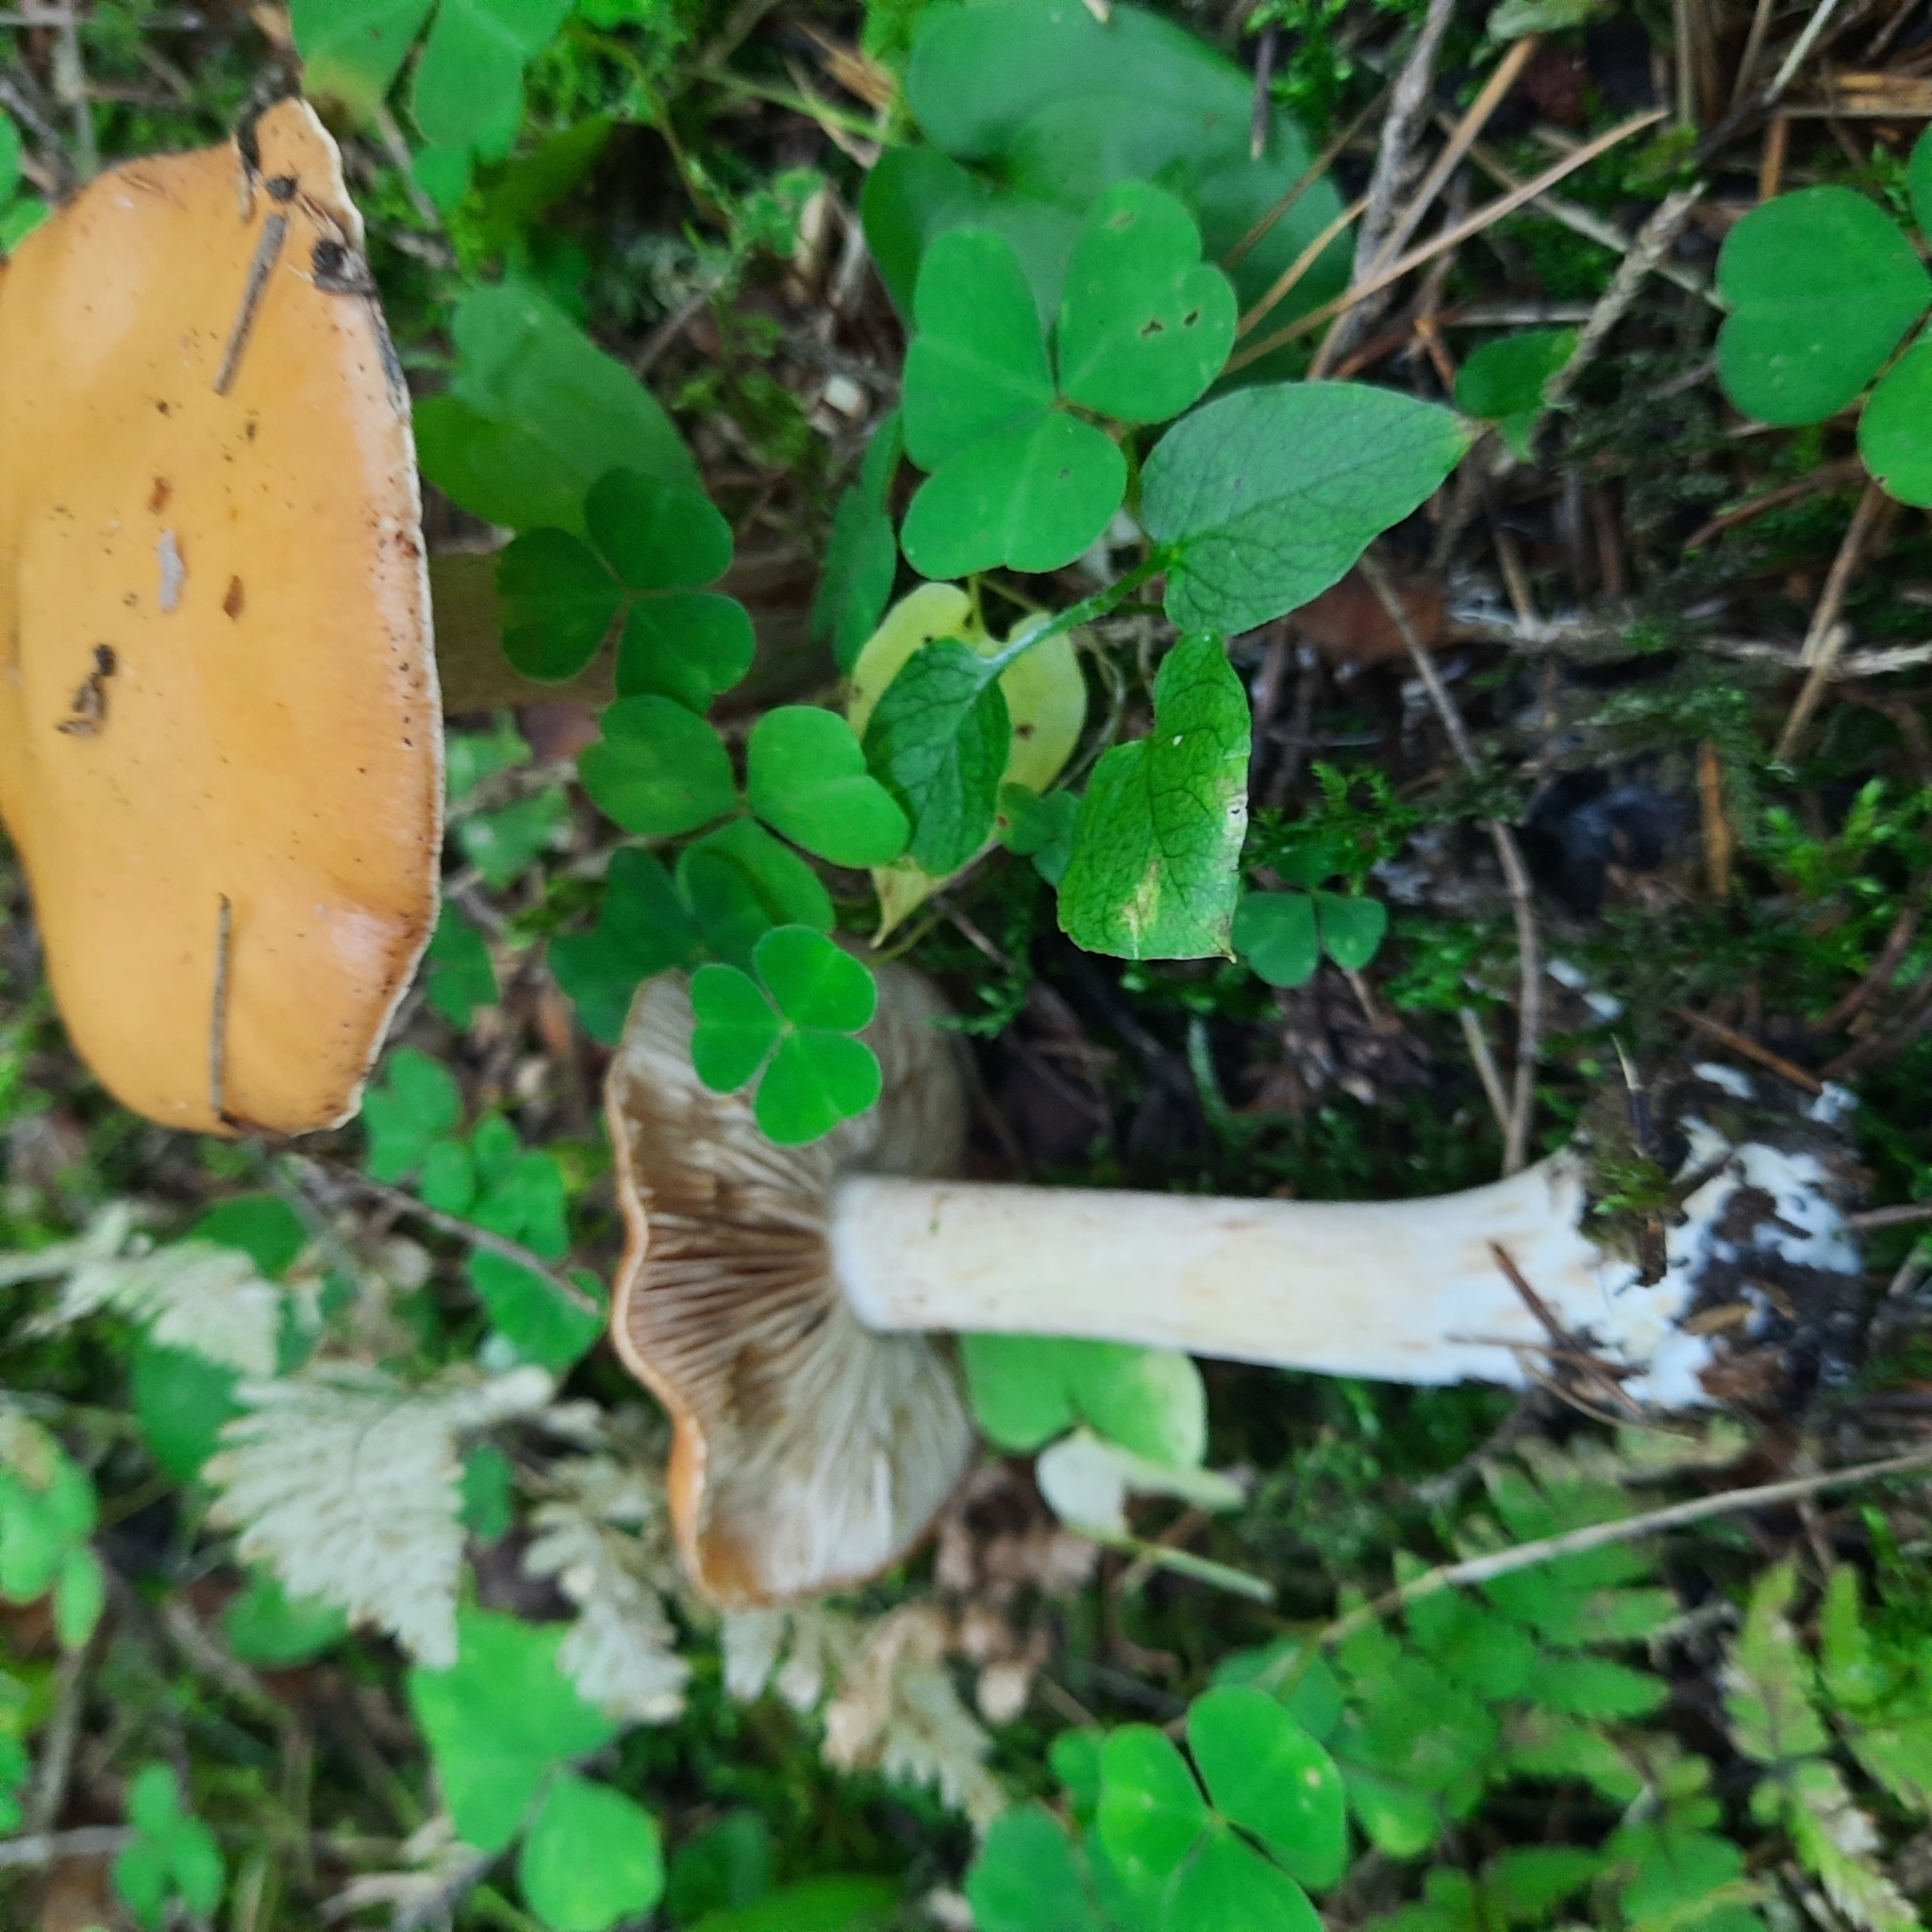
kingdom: Fungi
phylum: Basidiomycota
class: Agaricomycetes
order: Agaricales
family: Cortinariaceae
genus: Thaxterogaster
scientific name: Thaxterogaster multiformis
